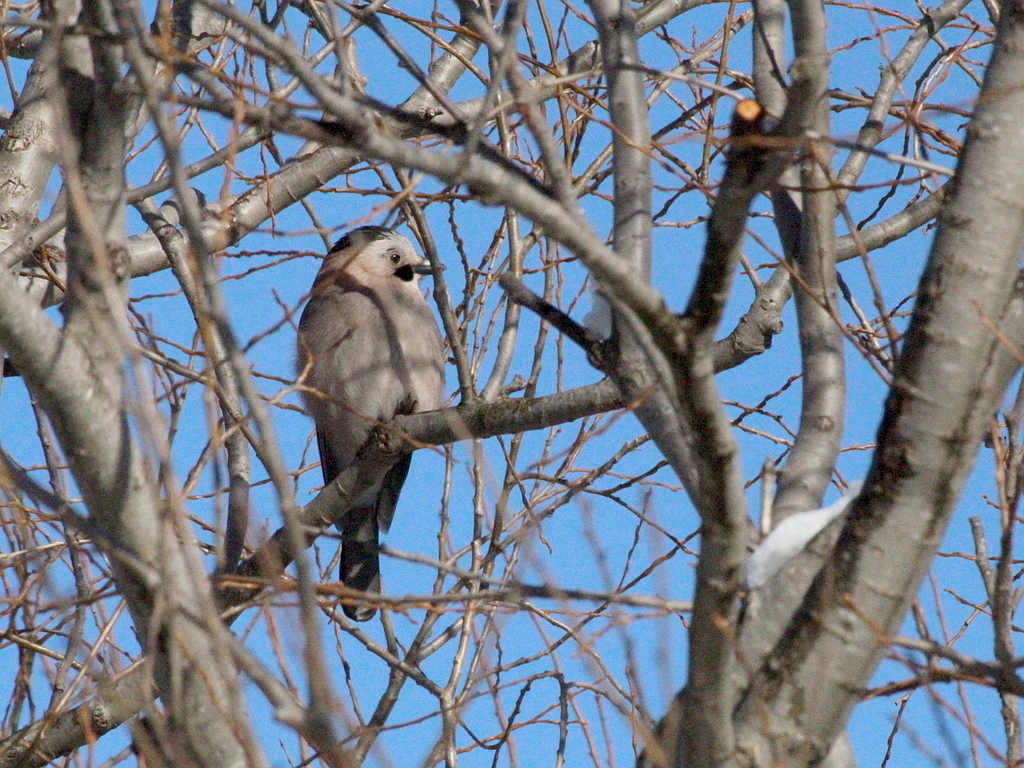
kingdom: Animalia
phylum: Chordata
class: Aves
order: Passeriformes
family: Corvidae
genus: Garrulus
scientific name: Garrulus glandarius
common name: Eurasian jay
